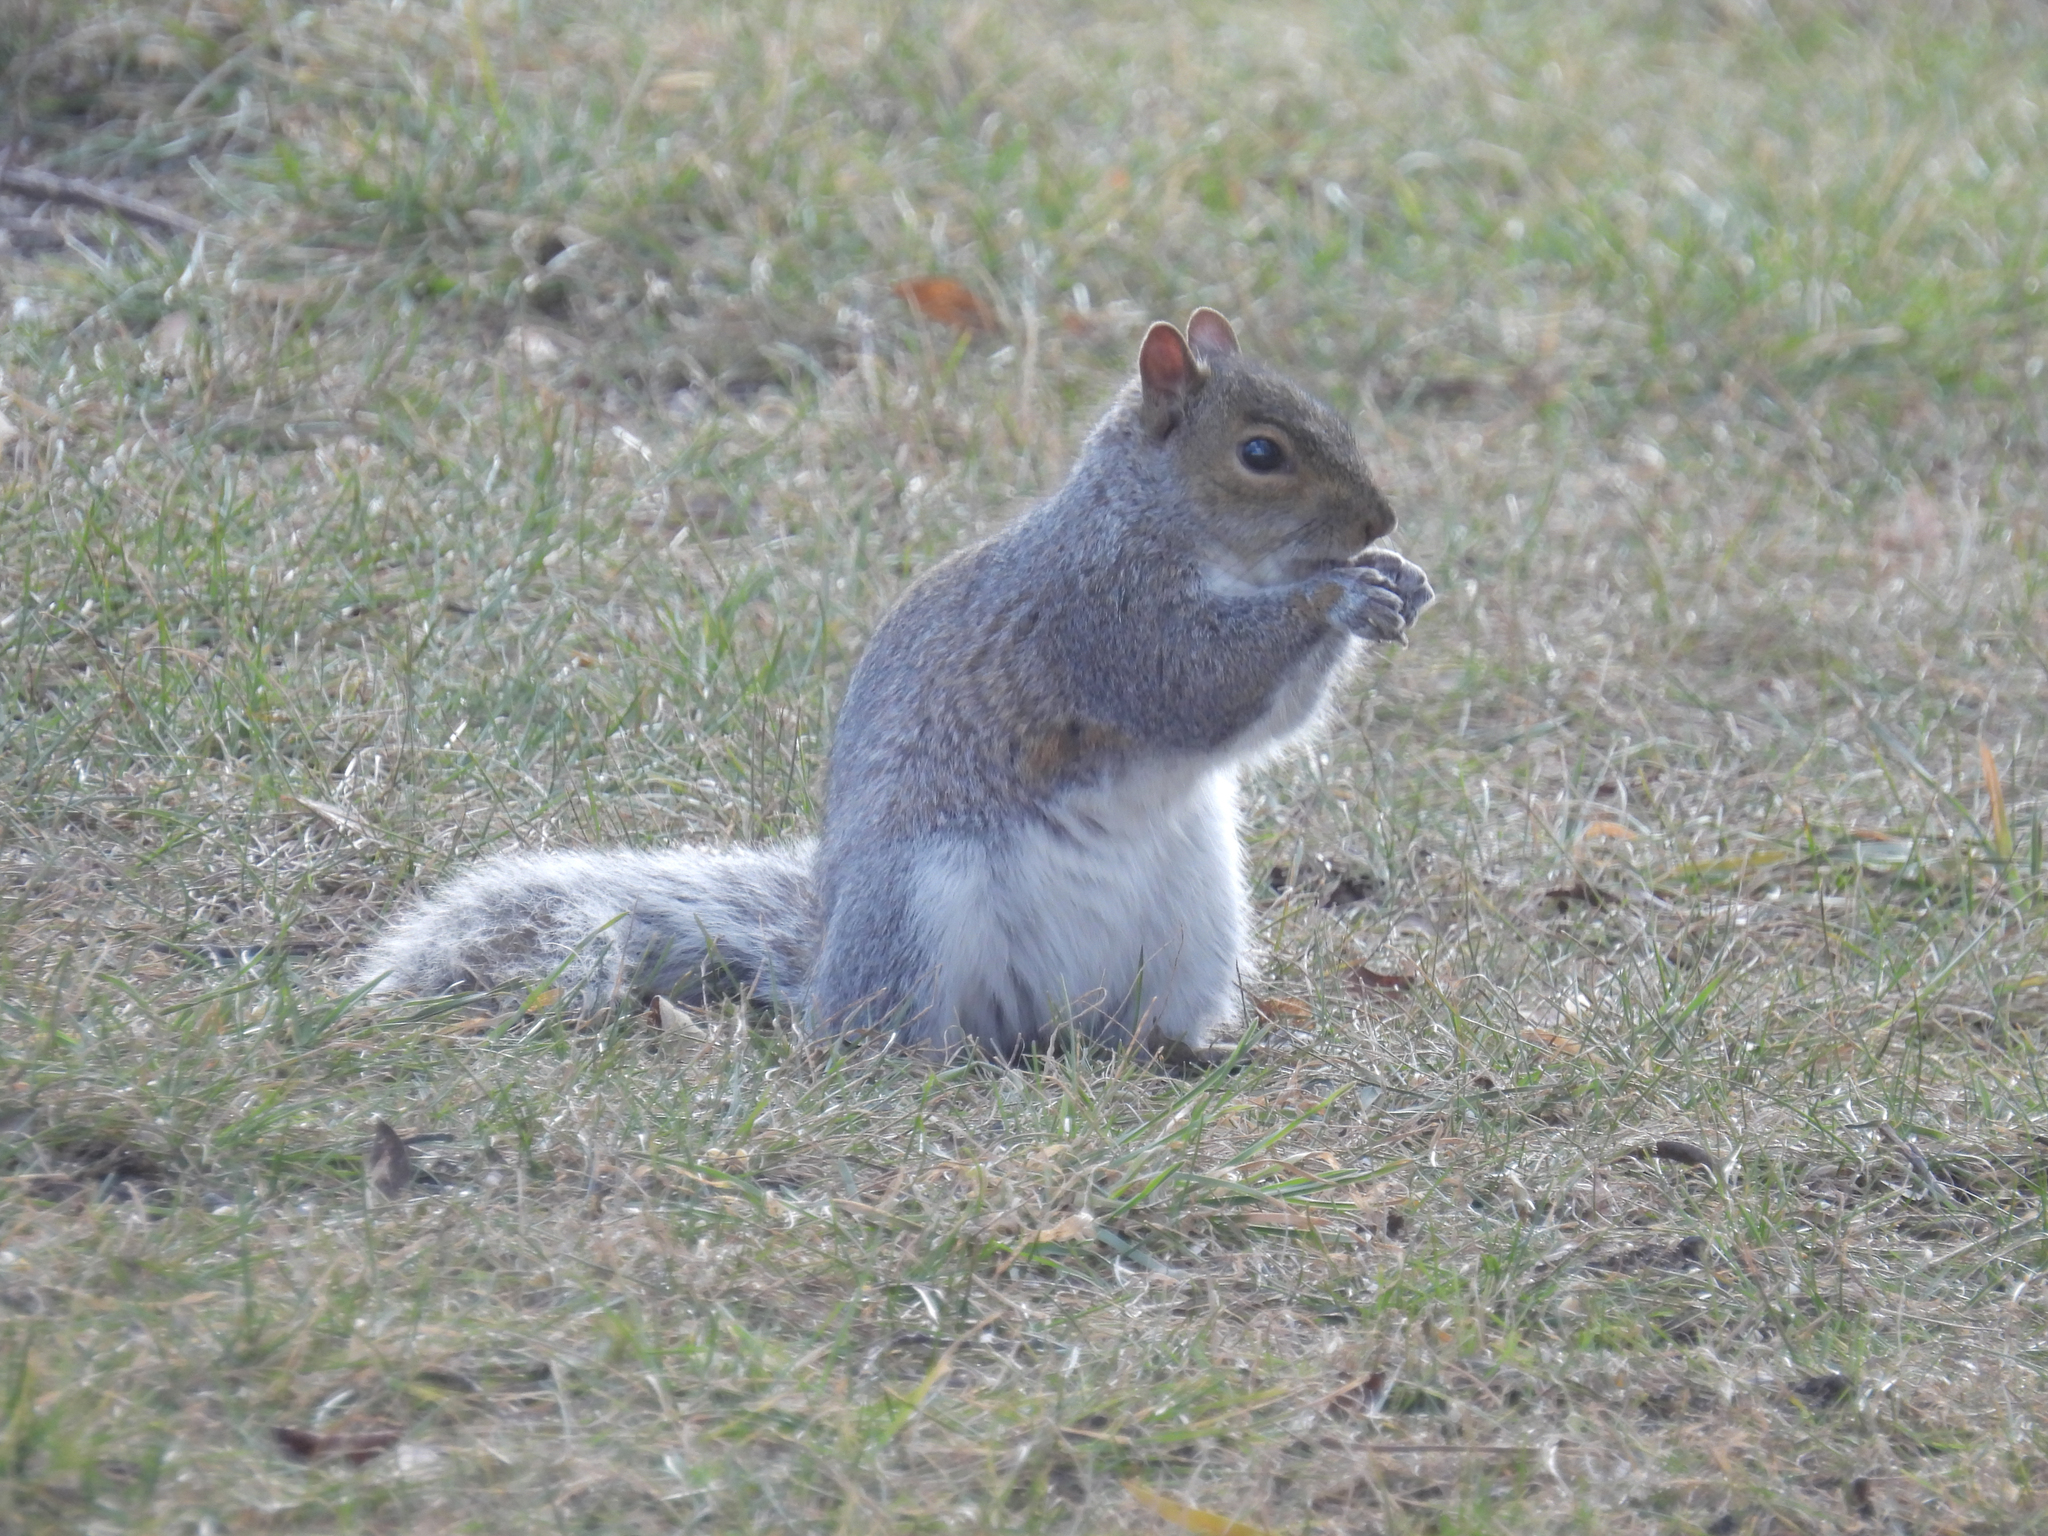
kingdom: Animalia
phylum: Chordata
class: Mammalia
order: Rodentia
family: Sciuridae
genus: Sciurus
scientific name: Sciurus carolinensis
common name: Eastern gray squirrel
